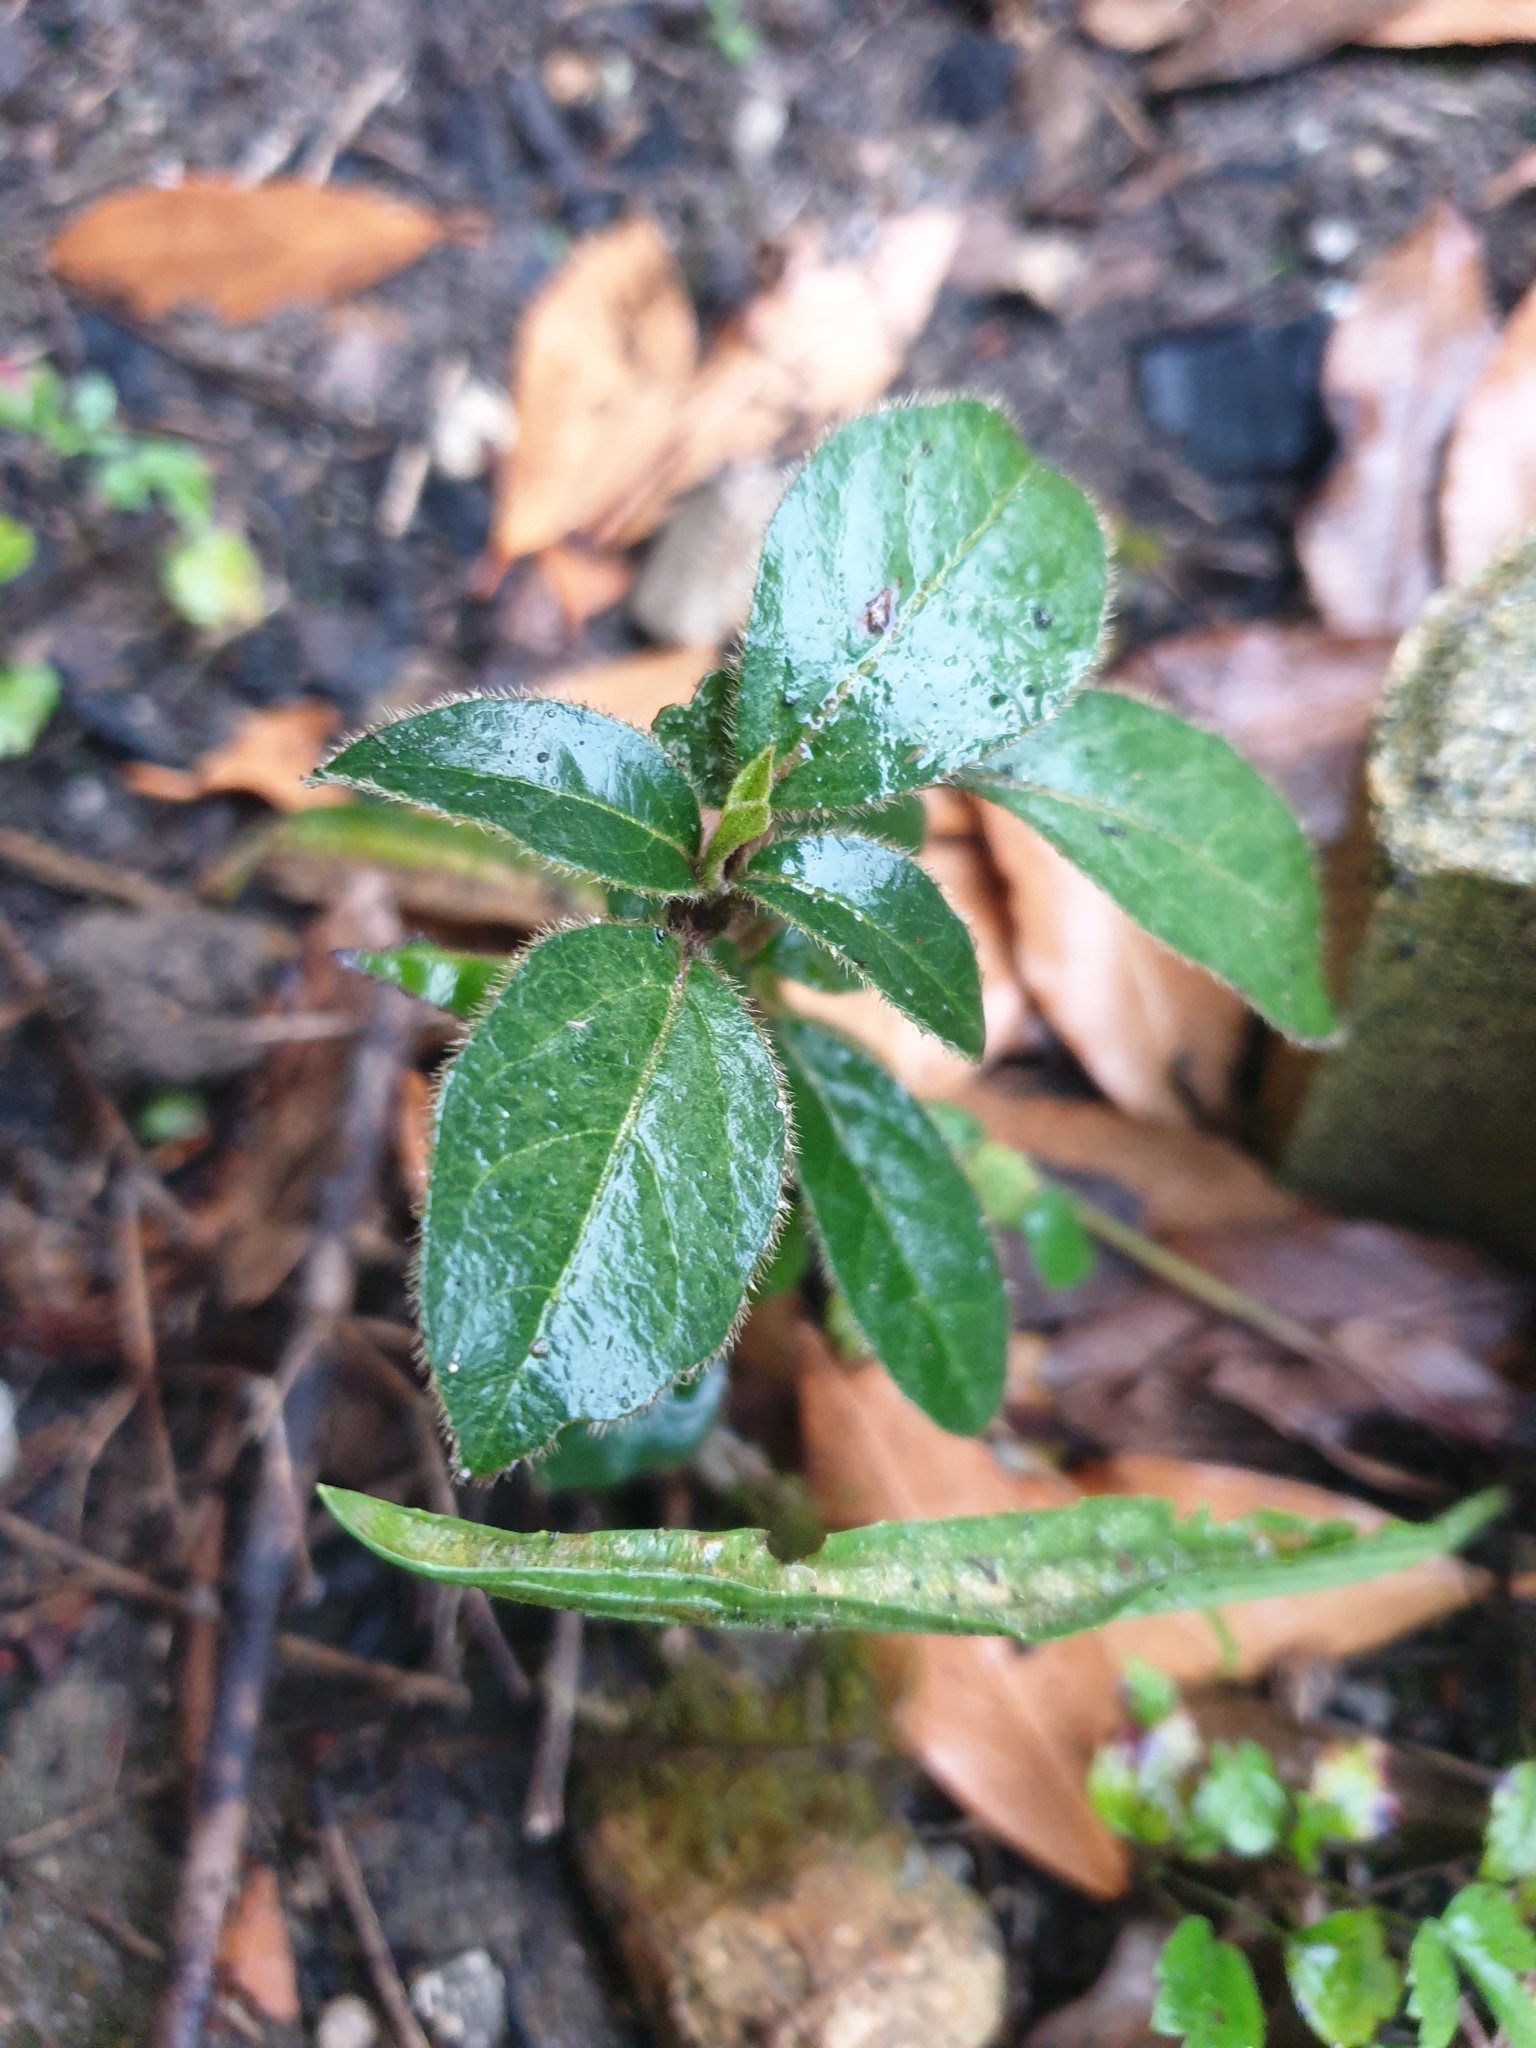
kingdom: Plantae
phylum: Tracheophyta
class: Magnoliopsida
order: Dipsacales
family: Viburnaceae
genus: Viburnum
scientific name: Viburnum tinus
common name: Laurustinus
